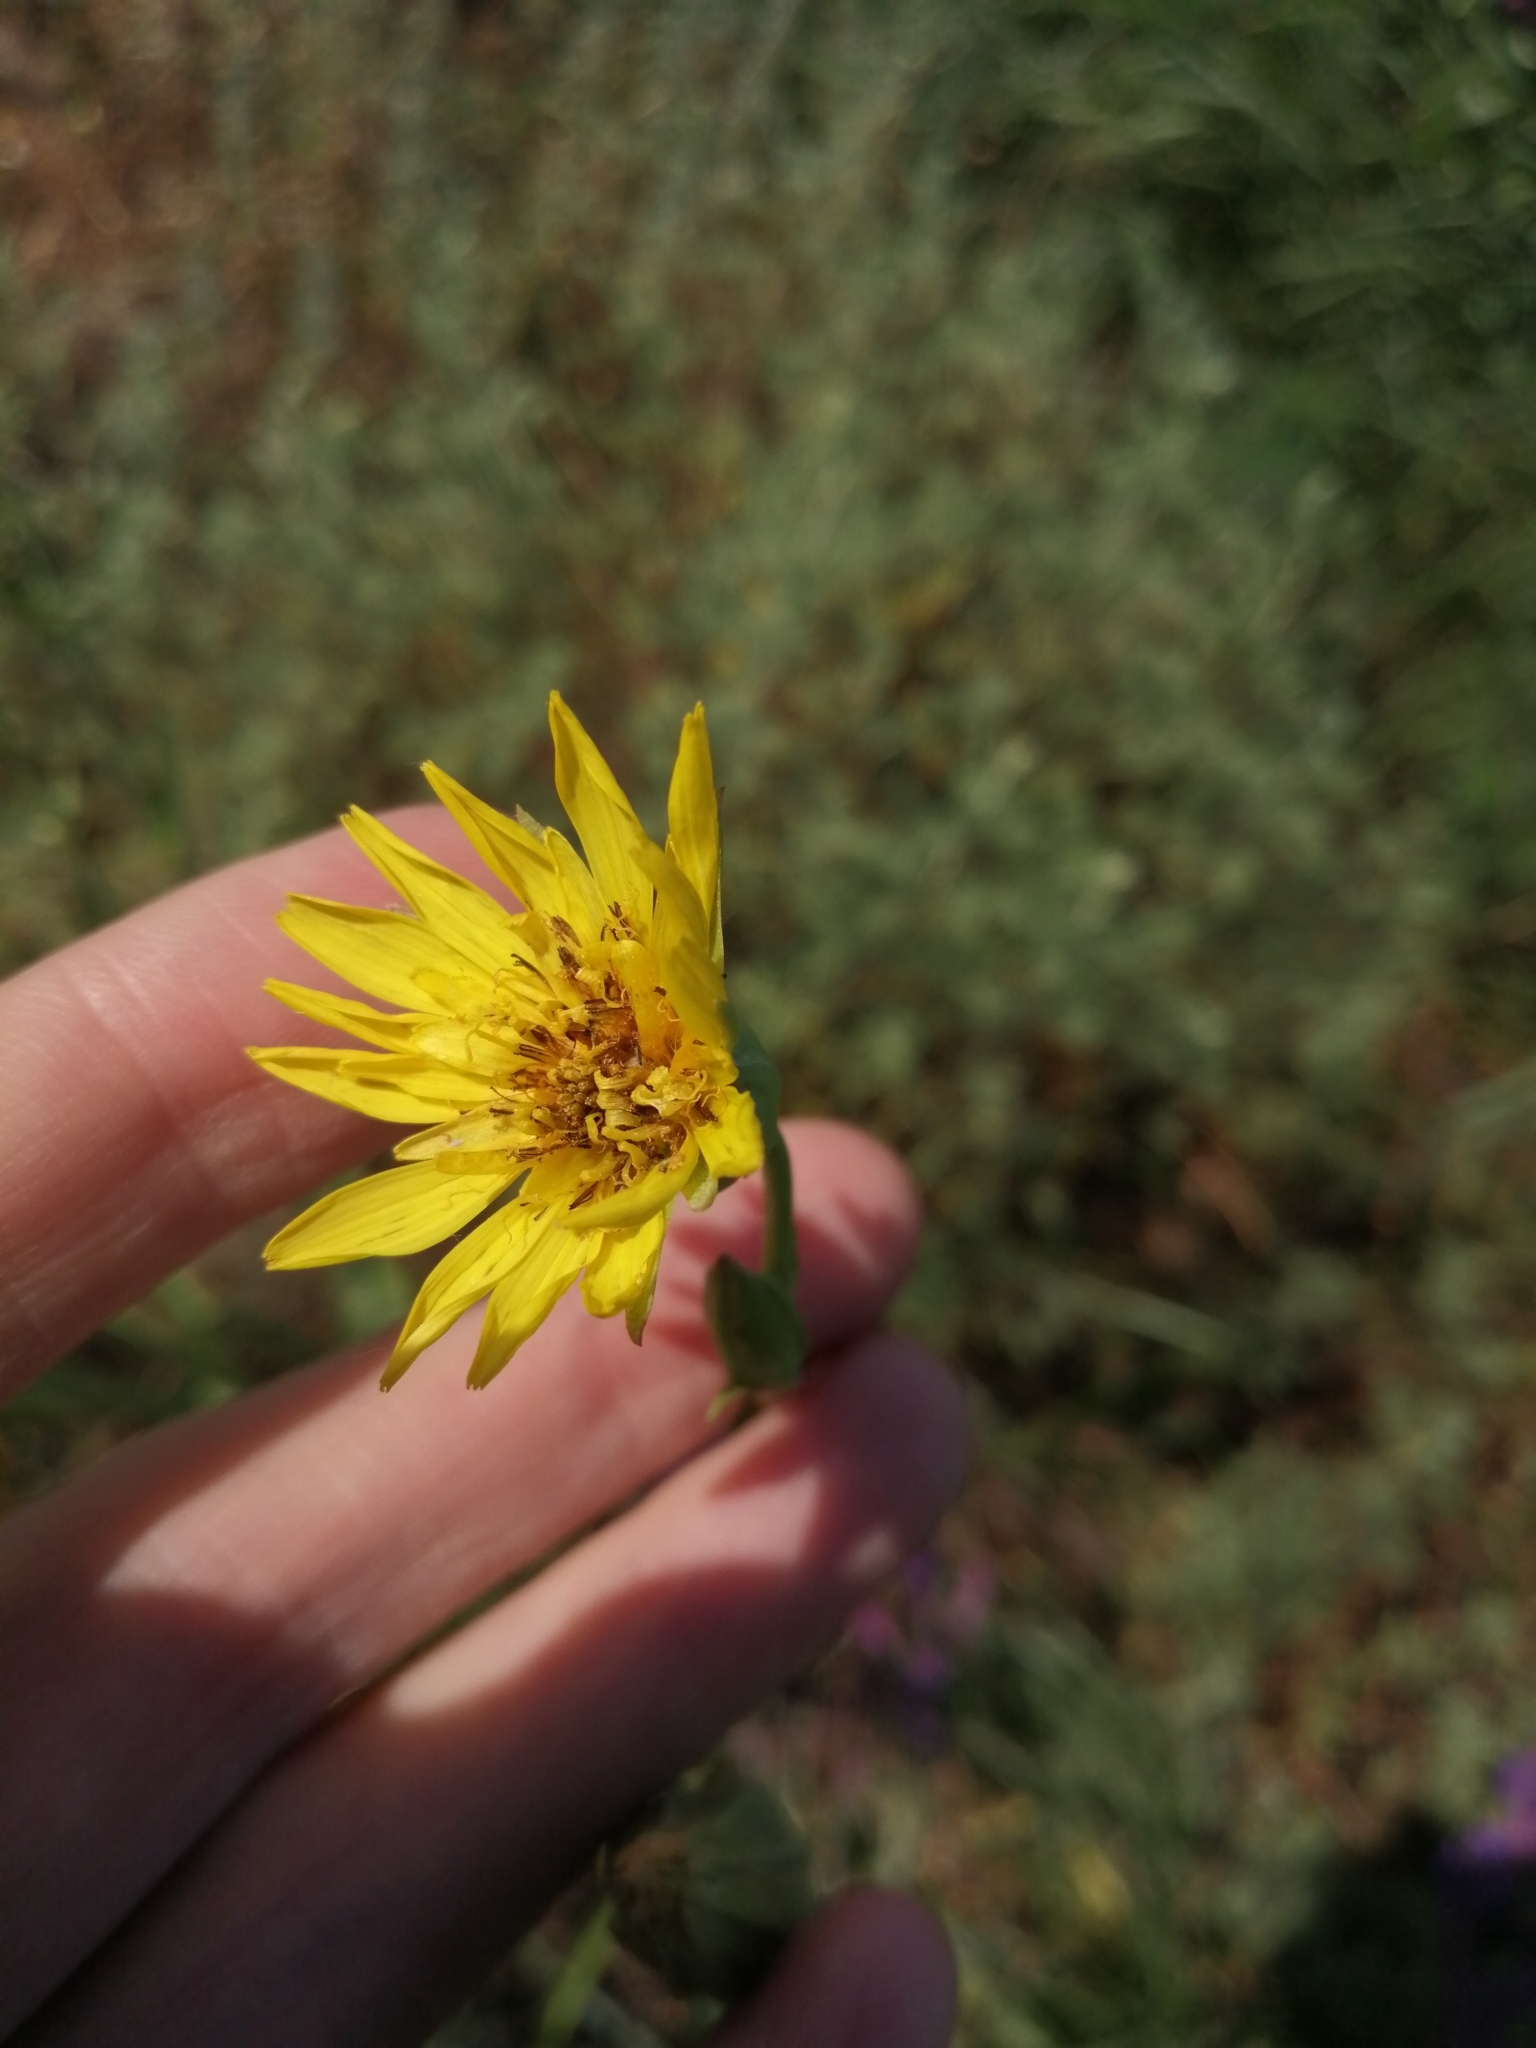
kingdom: Plantae
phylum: Tracheophyta
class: Magnoliopsida
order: Asterales
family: Asteraceae
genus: Tragopogon
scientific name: Tragopogon orientalis
